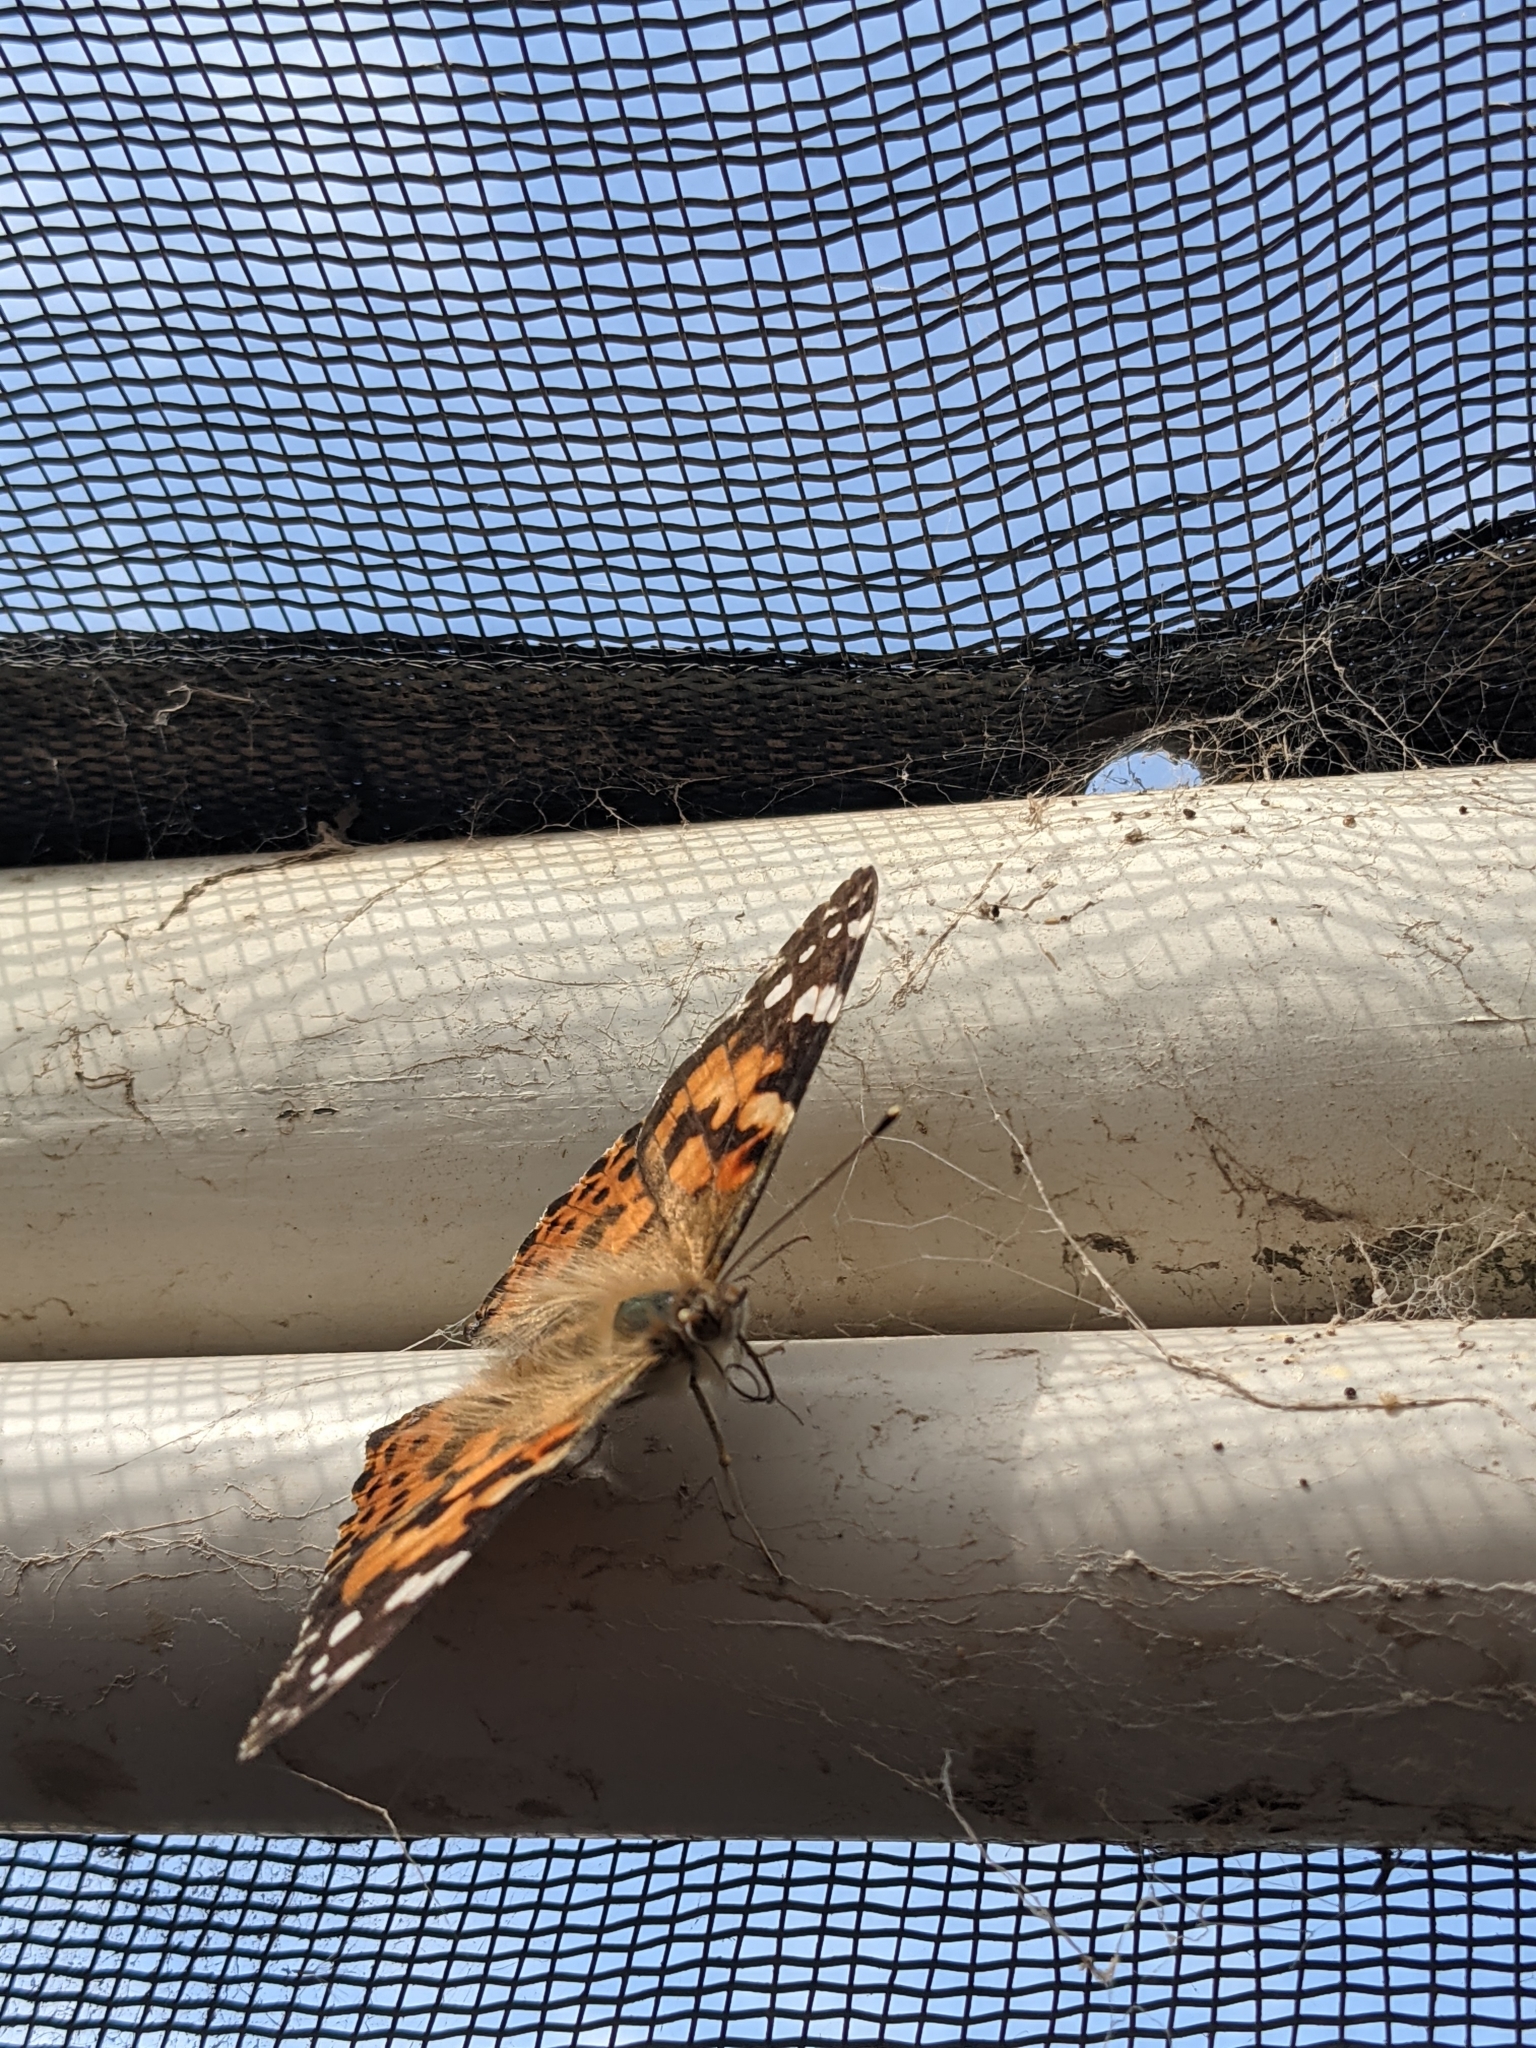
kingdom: Animalia
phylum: Arthropoda
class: Insecta
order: Lepidoptera
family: Nymphalidae
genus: Vanessa
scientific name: Vanessa cardui
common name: Painted lady
